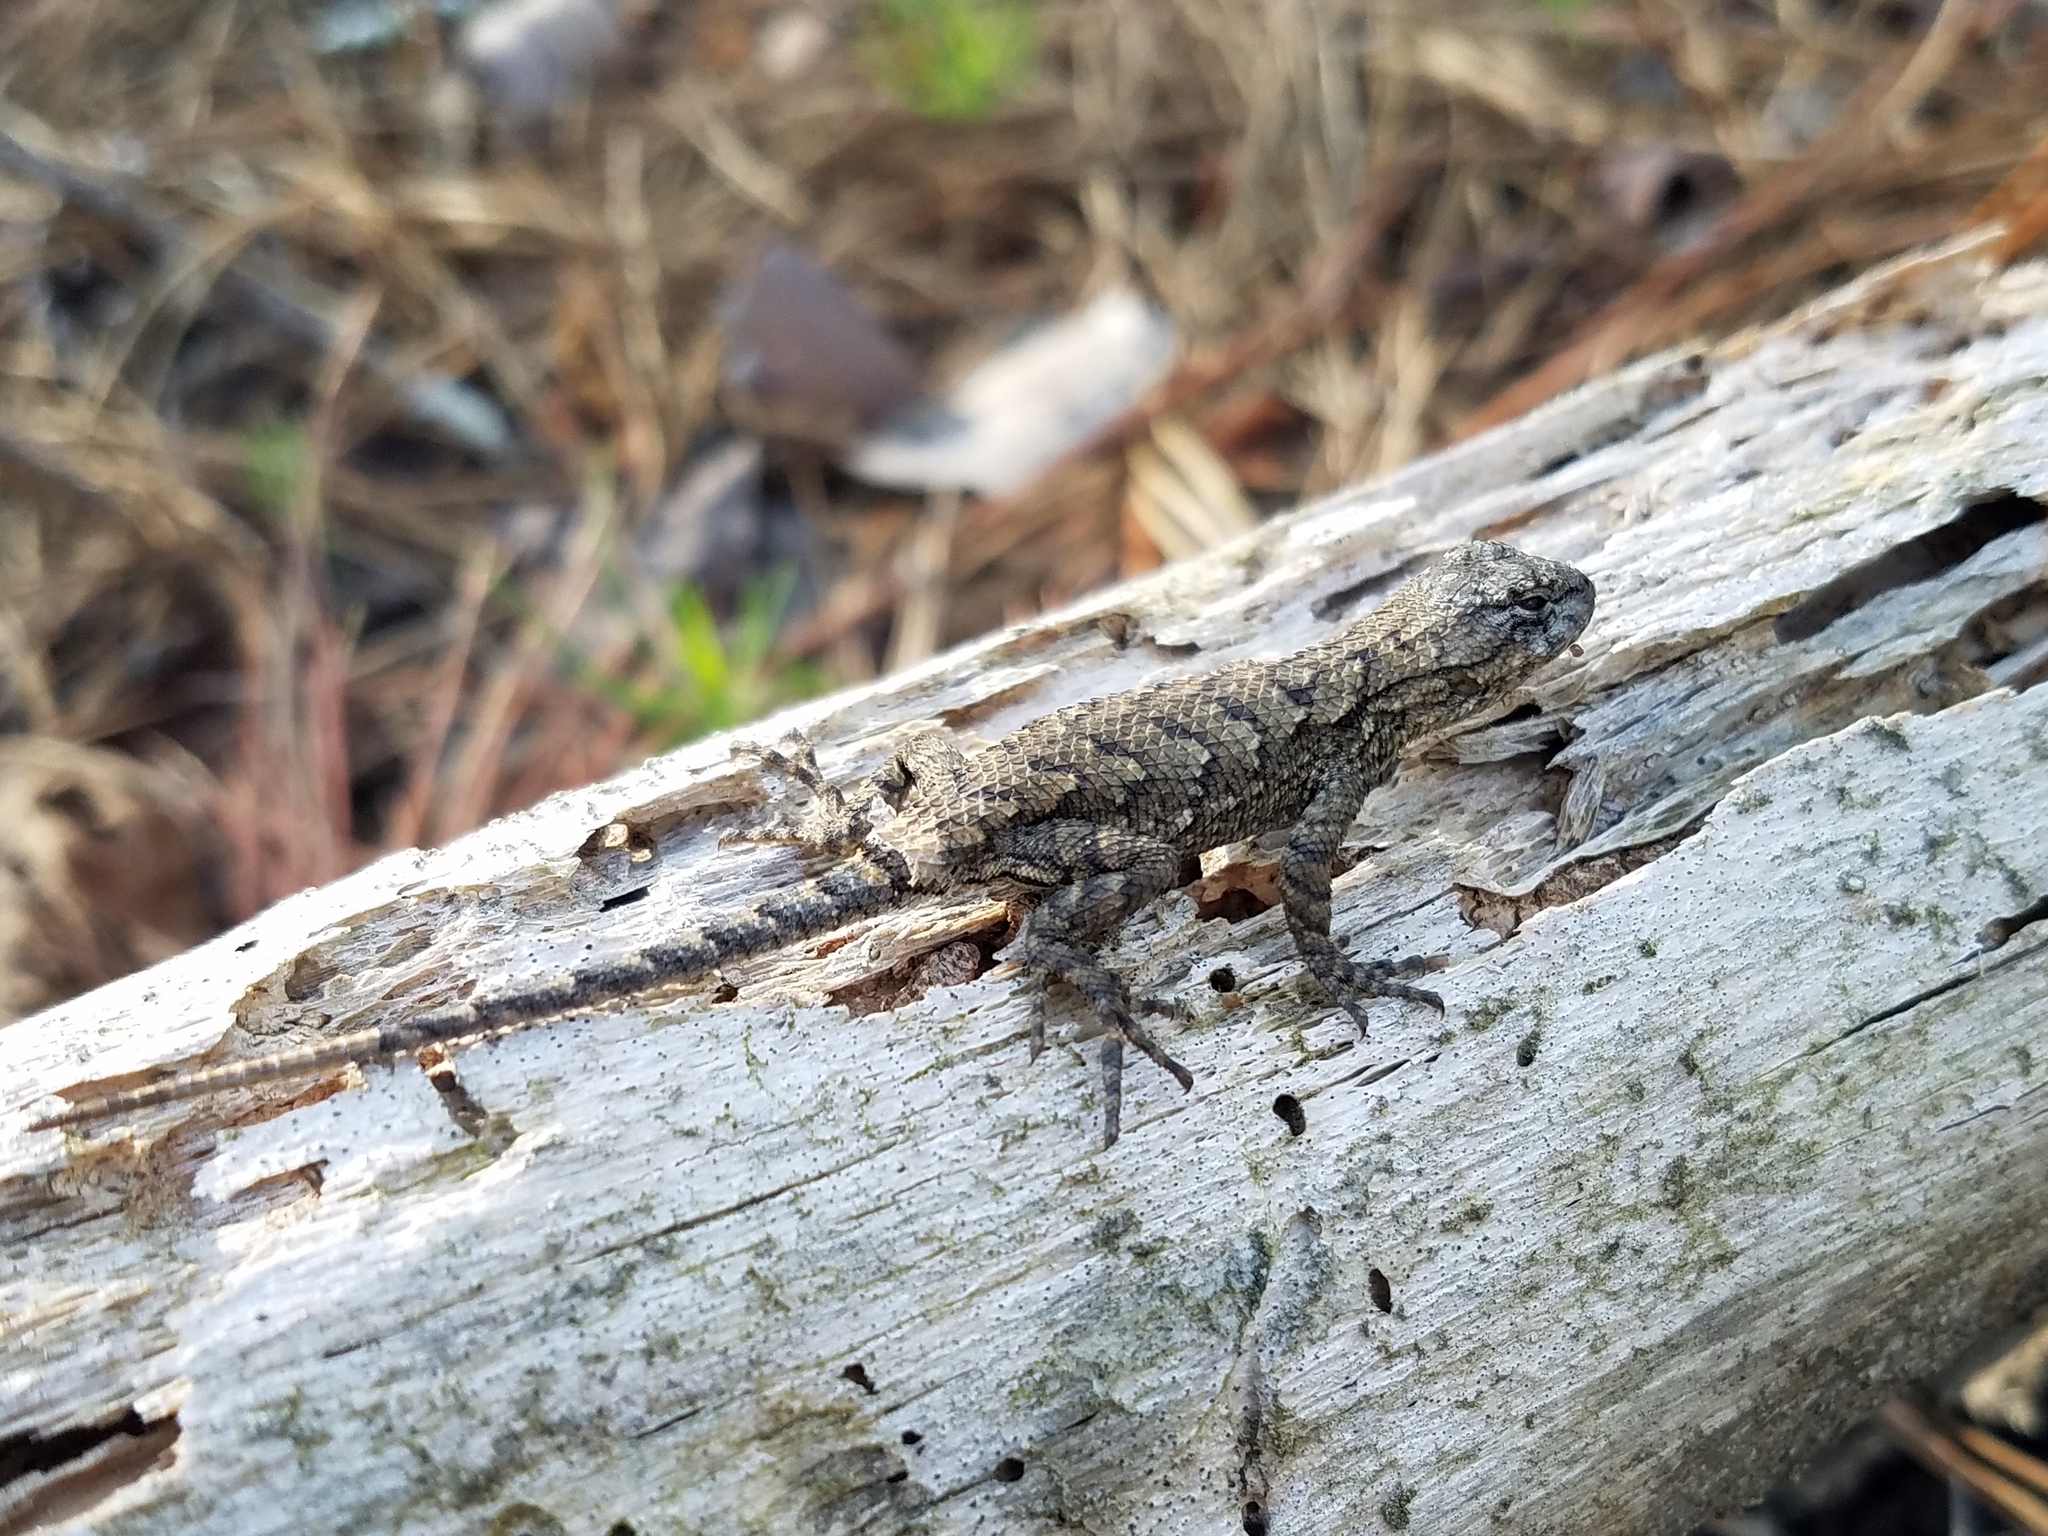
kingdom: Animalia
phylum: Chordata
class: Squamata
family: Phrynosomatidae
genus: Sceloporus
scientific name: Sceloporus undulatus
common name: Eastern fence lizard
